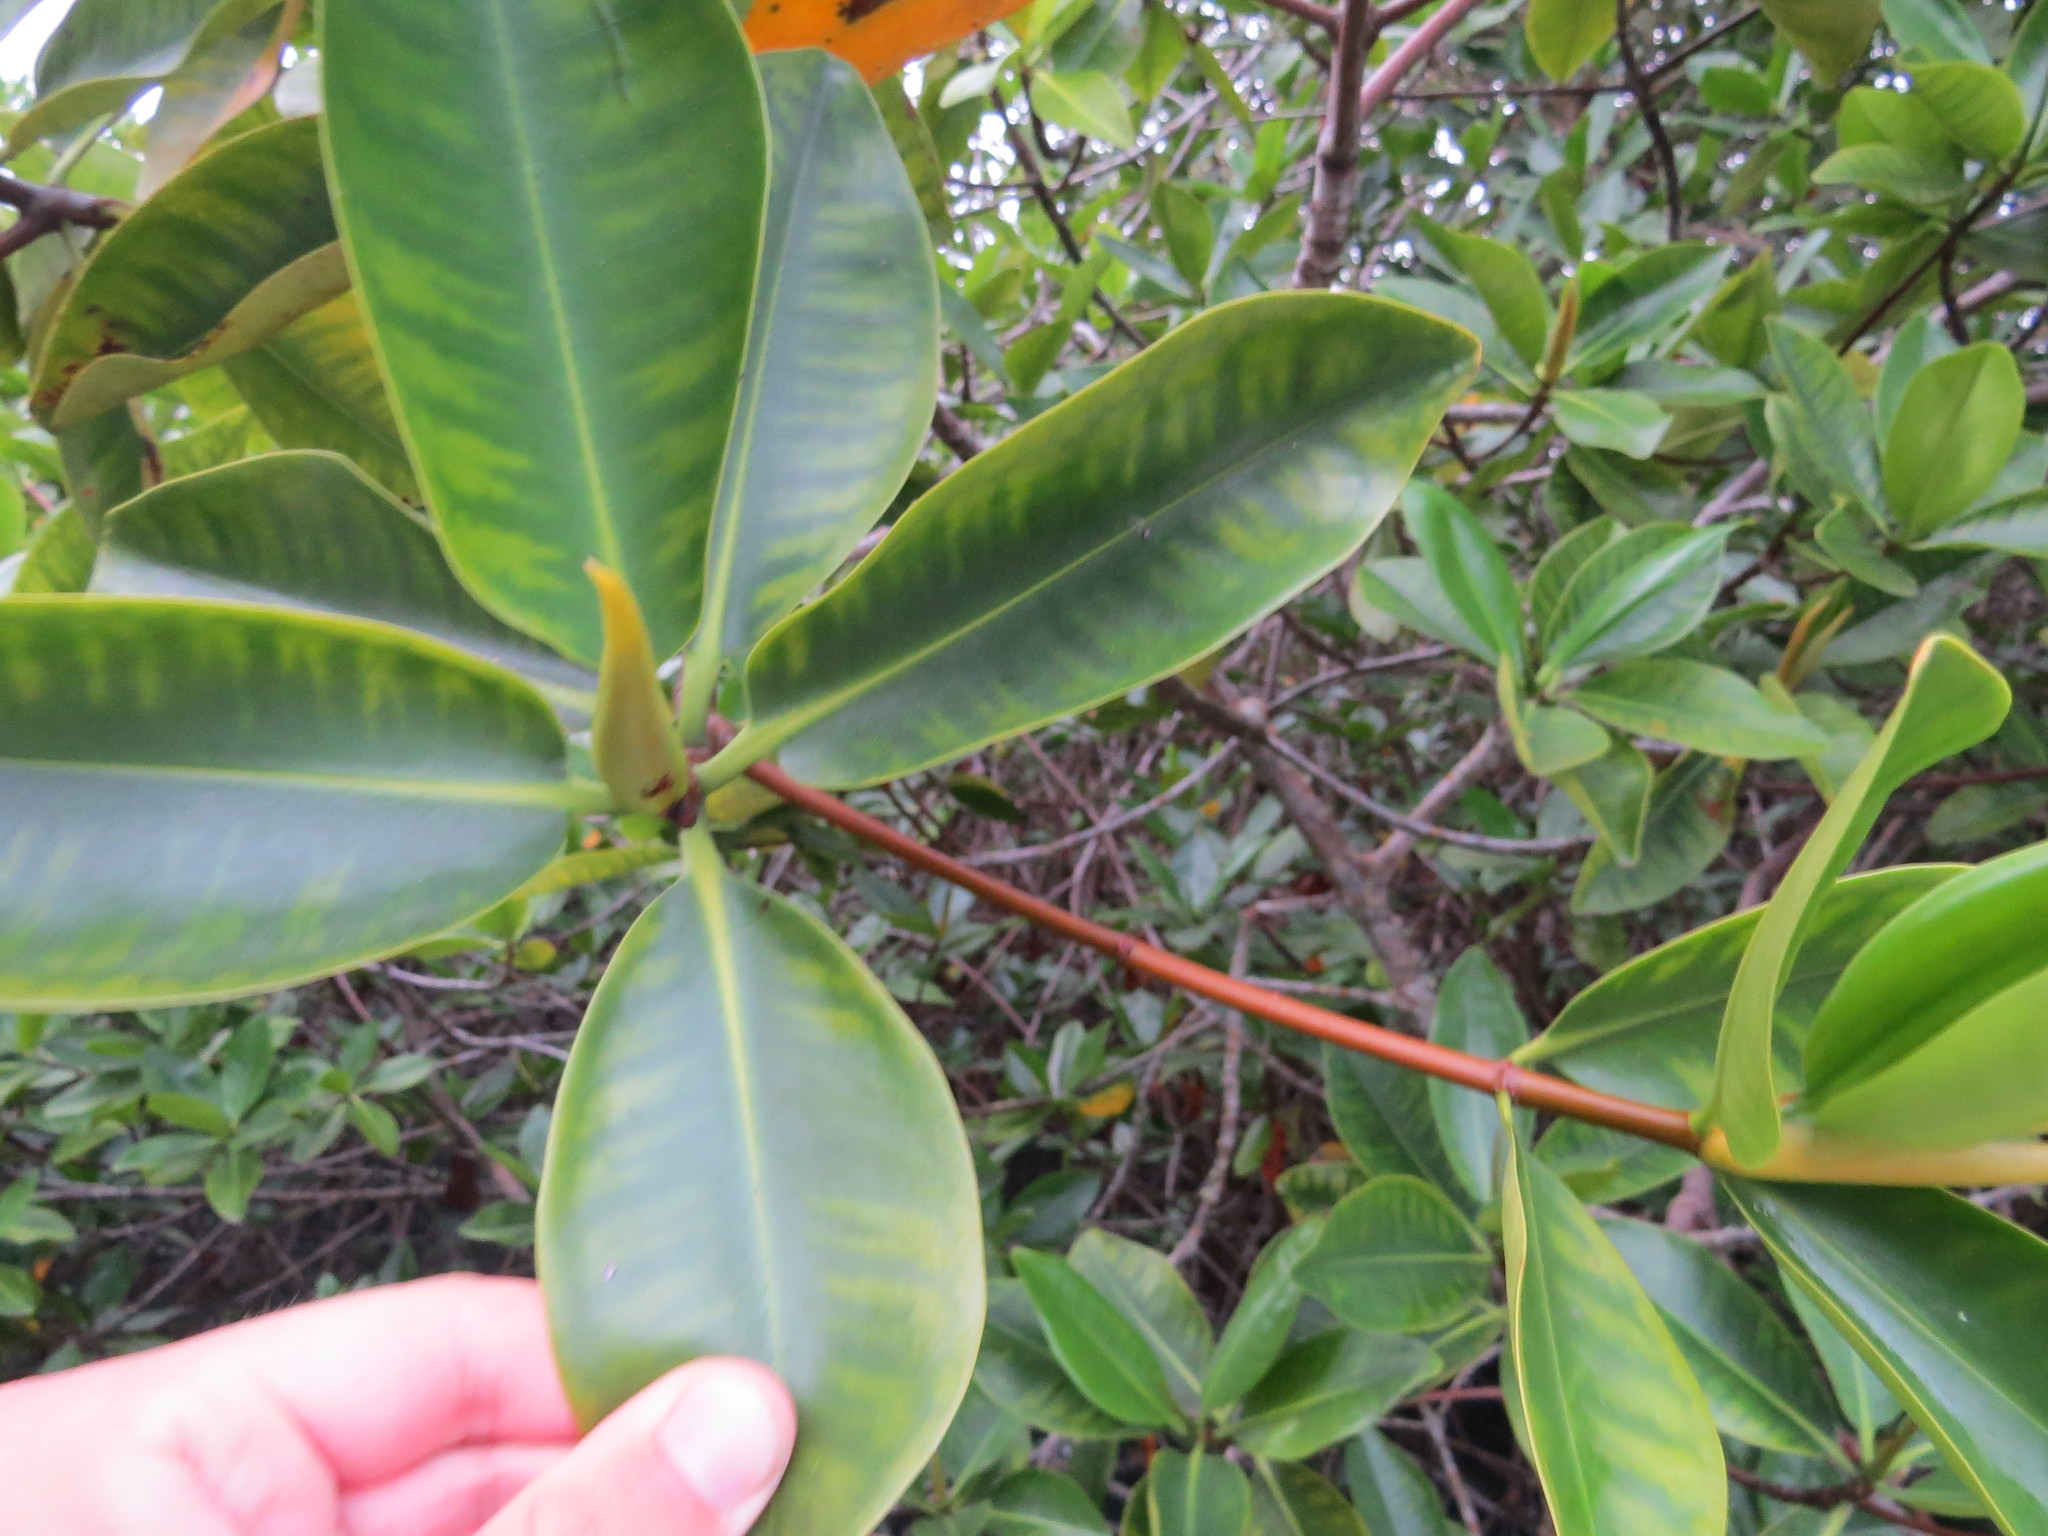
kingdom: Plantae
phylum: Tracheophyta
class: Magnoliopsida
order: Malpighiales
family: Rhizophoraceae
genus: Rhizophora
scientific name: Rhizophora mangle
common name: Red mangrove
